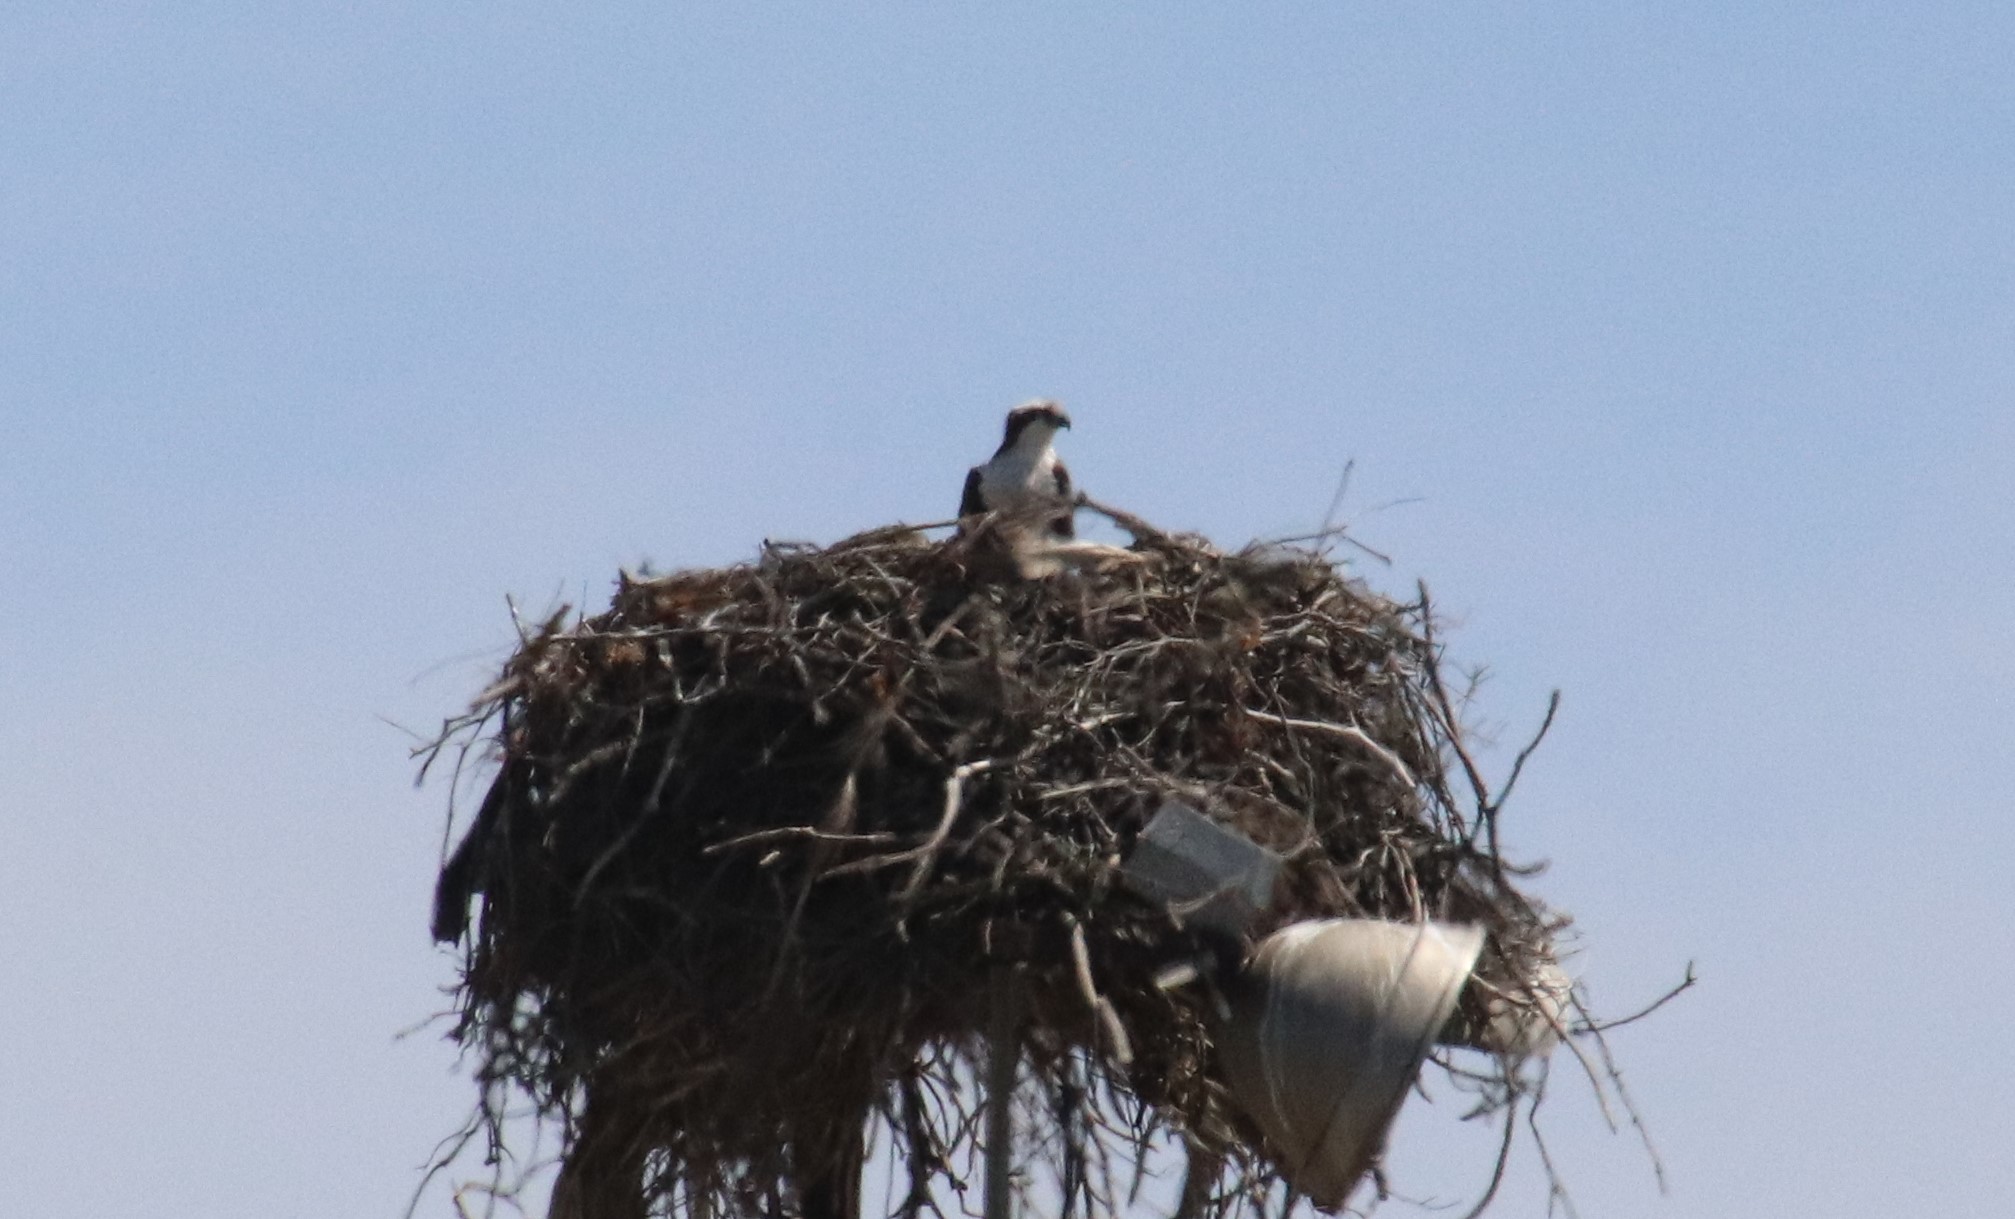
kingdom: Animalia
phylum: Chordata
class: Aves
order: Accipitriformes
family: Pandionidae
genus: Pandion
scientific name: Pandion haliaetus
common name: Osprey
